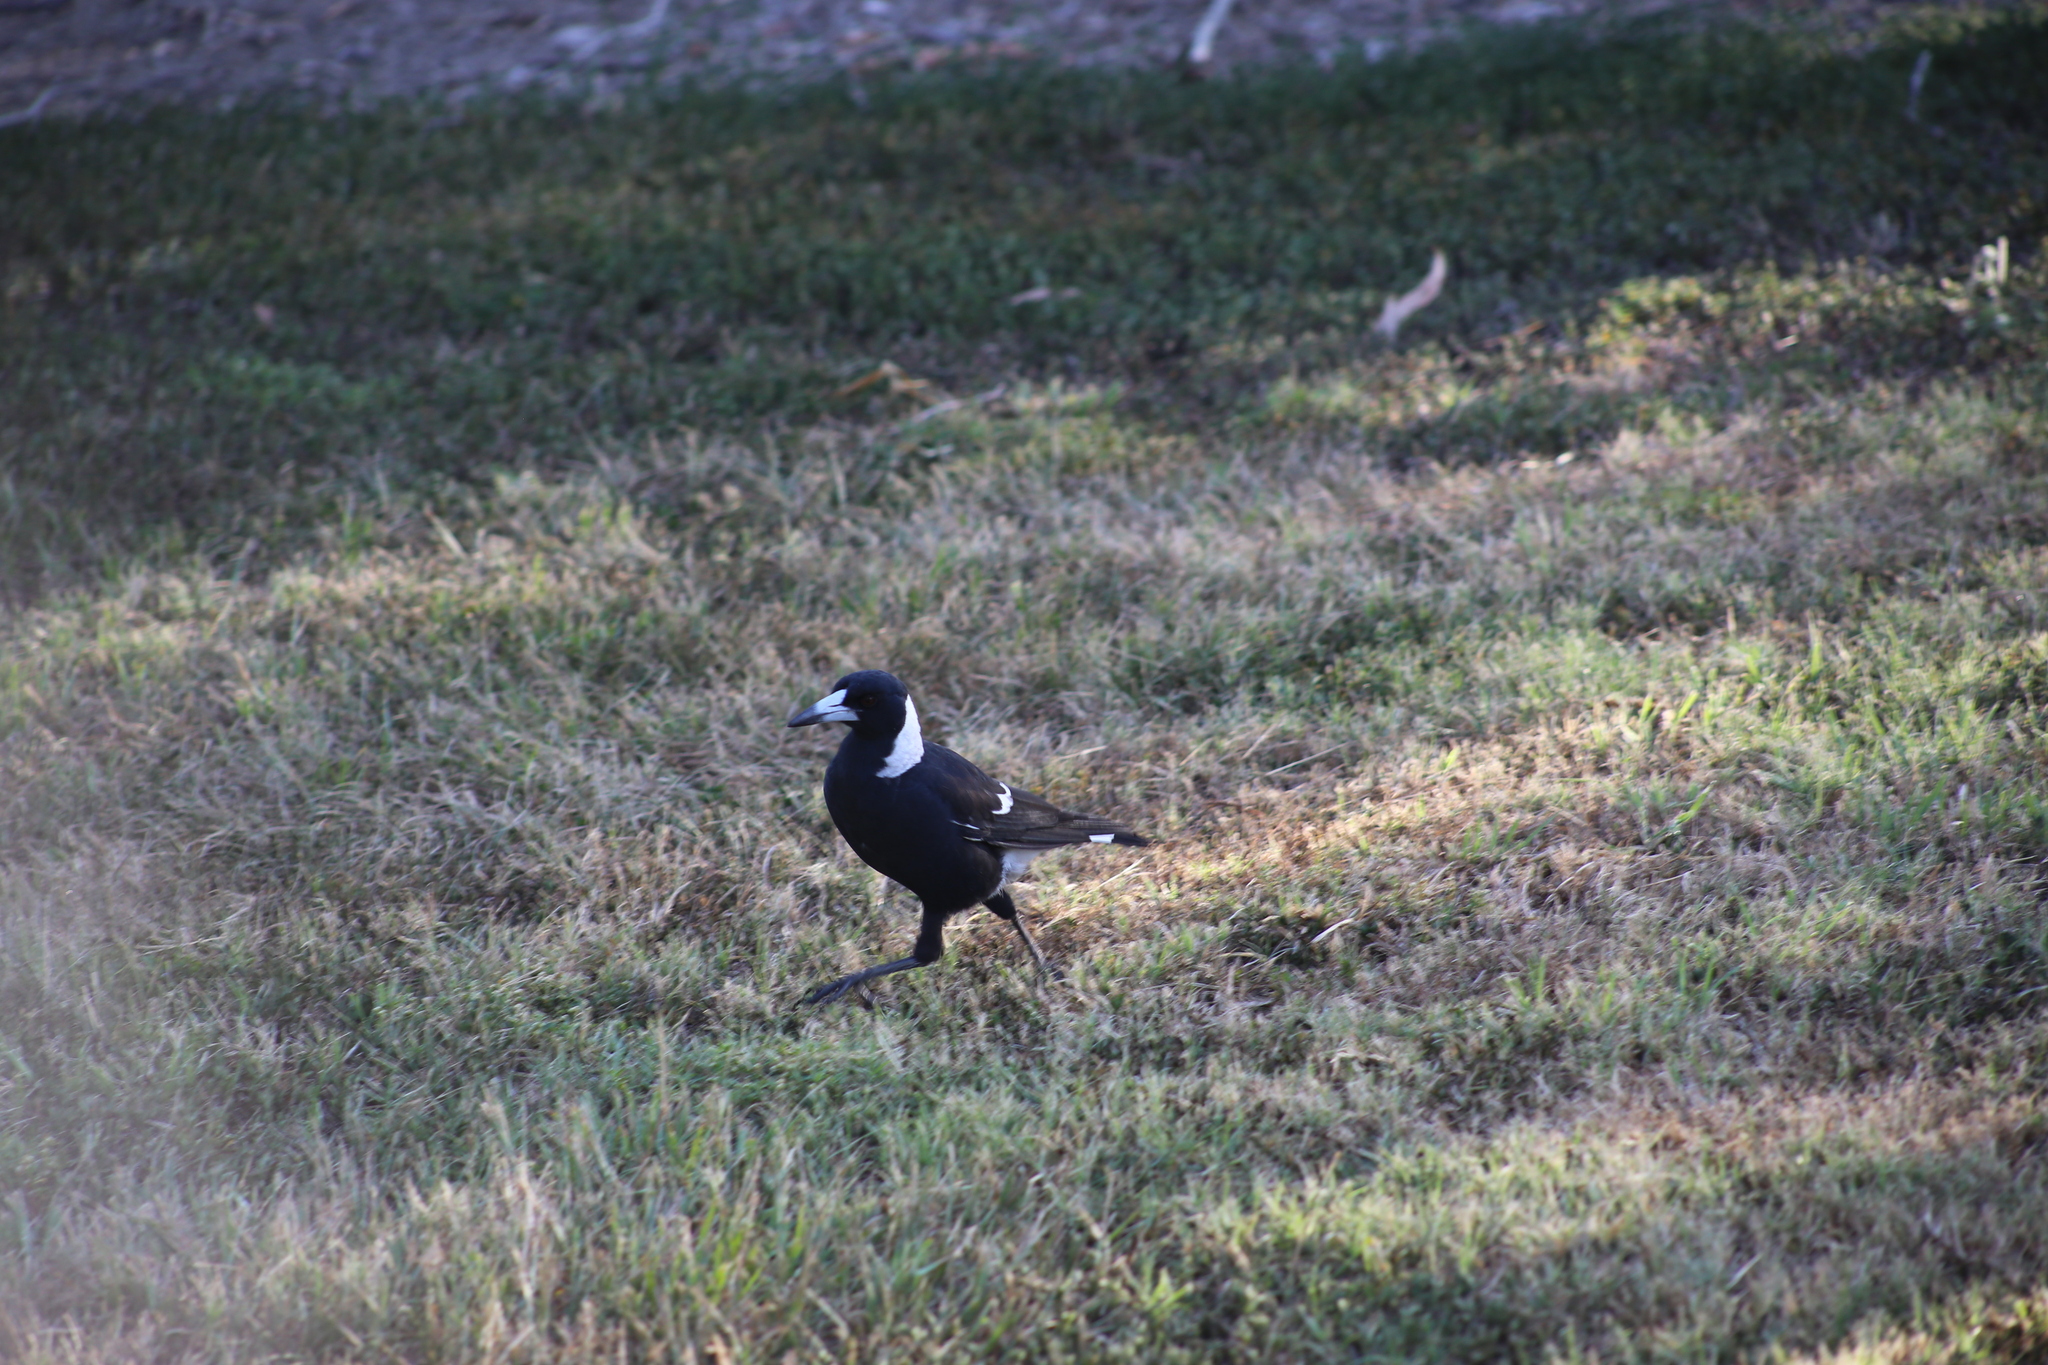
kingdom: Animalia
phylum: Chordata
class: Aves
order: Passeriformes
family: Cracticidae
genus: Gymnorhina
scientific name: Gymnorhina tibicen
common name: Australian magpie
